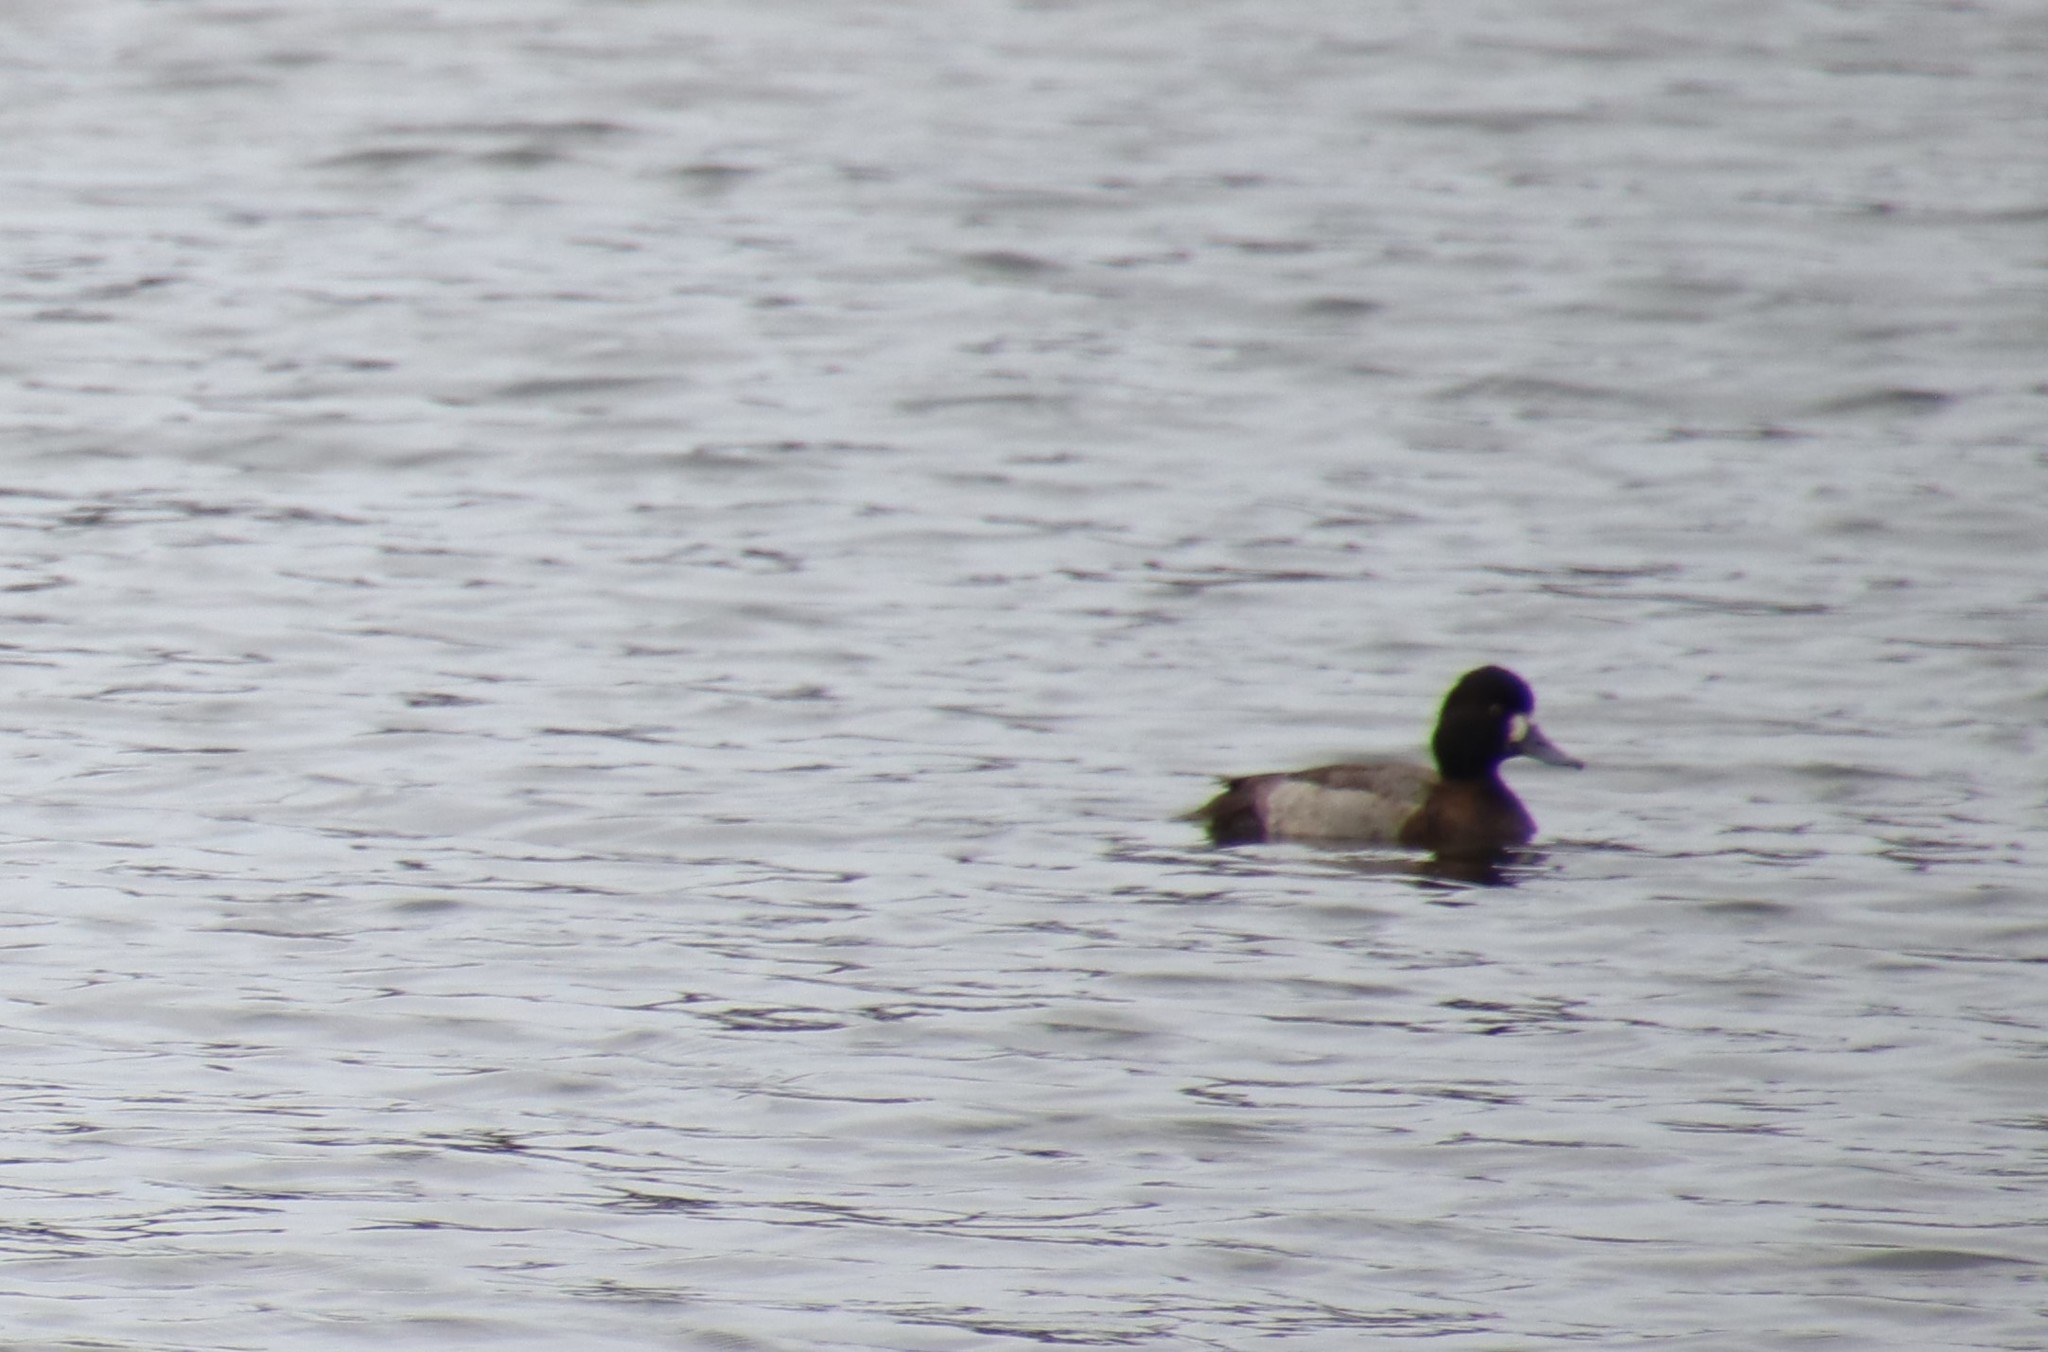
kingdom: Animalia
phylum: Chordata
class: Aves
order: Anseriformes
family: Anatidae
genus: Aythya
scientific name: Aythya affinis
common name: Lesser scaup
